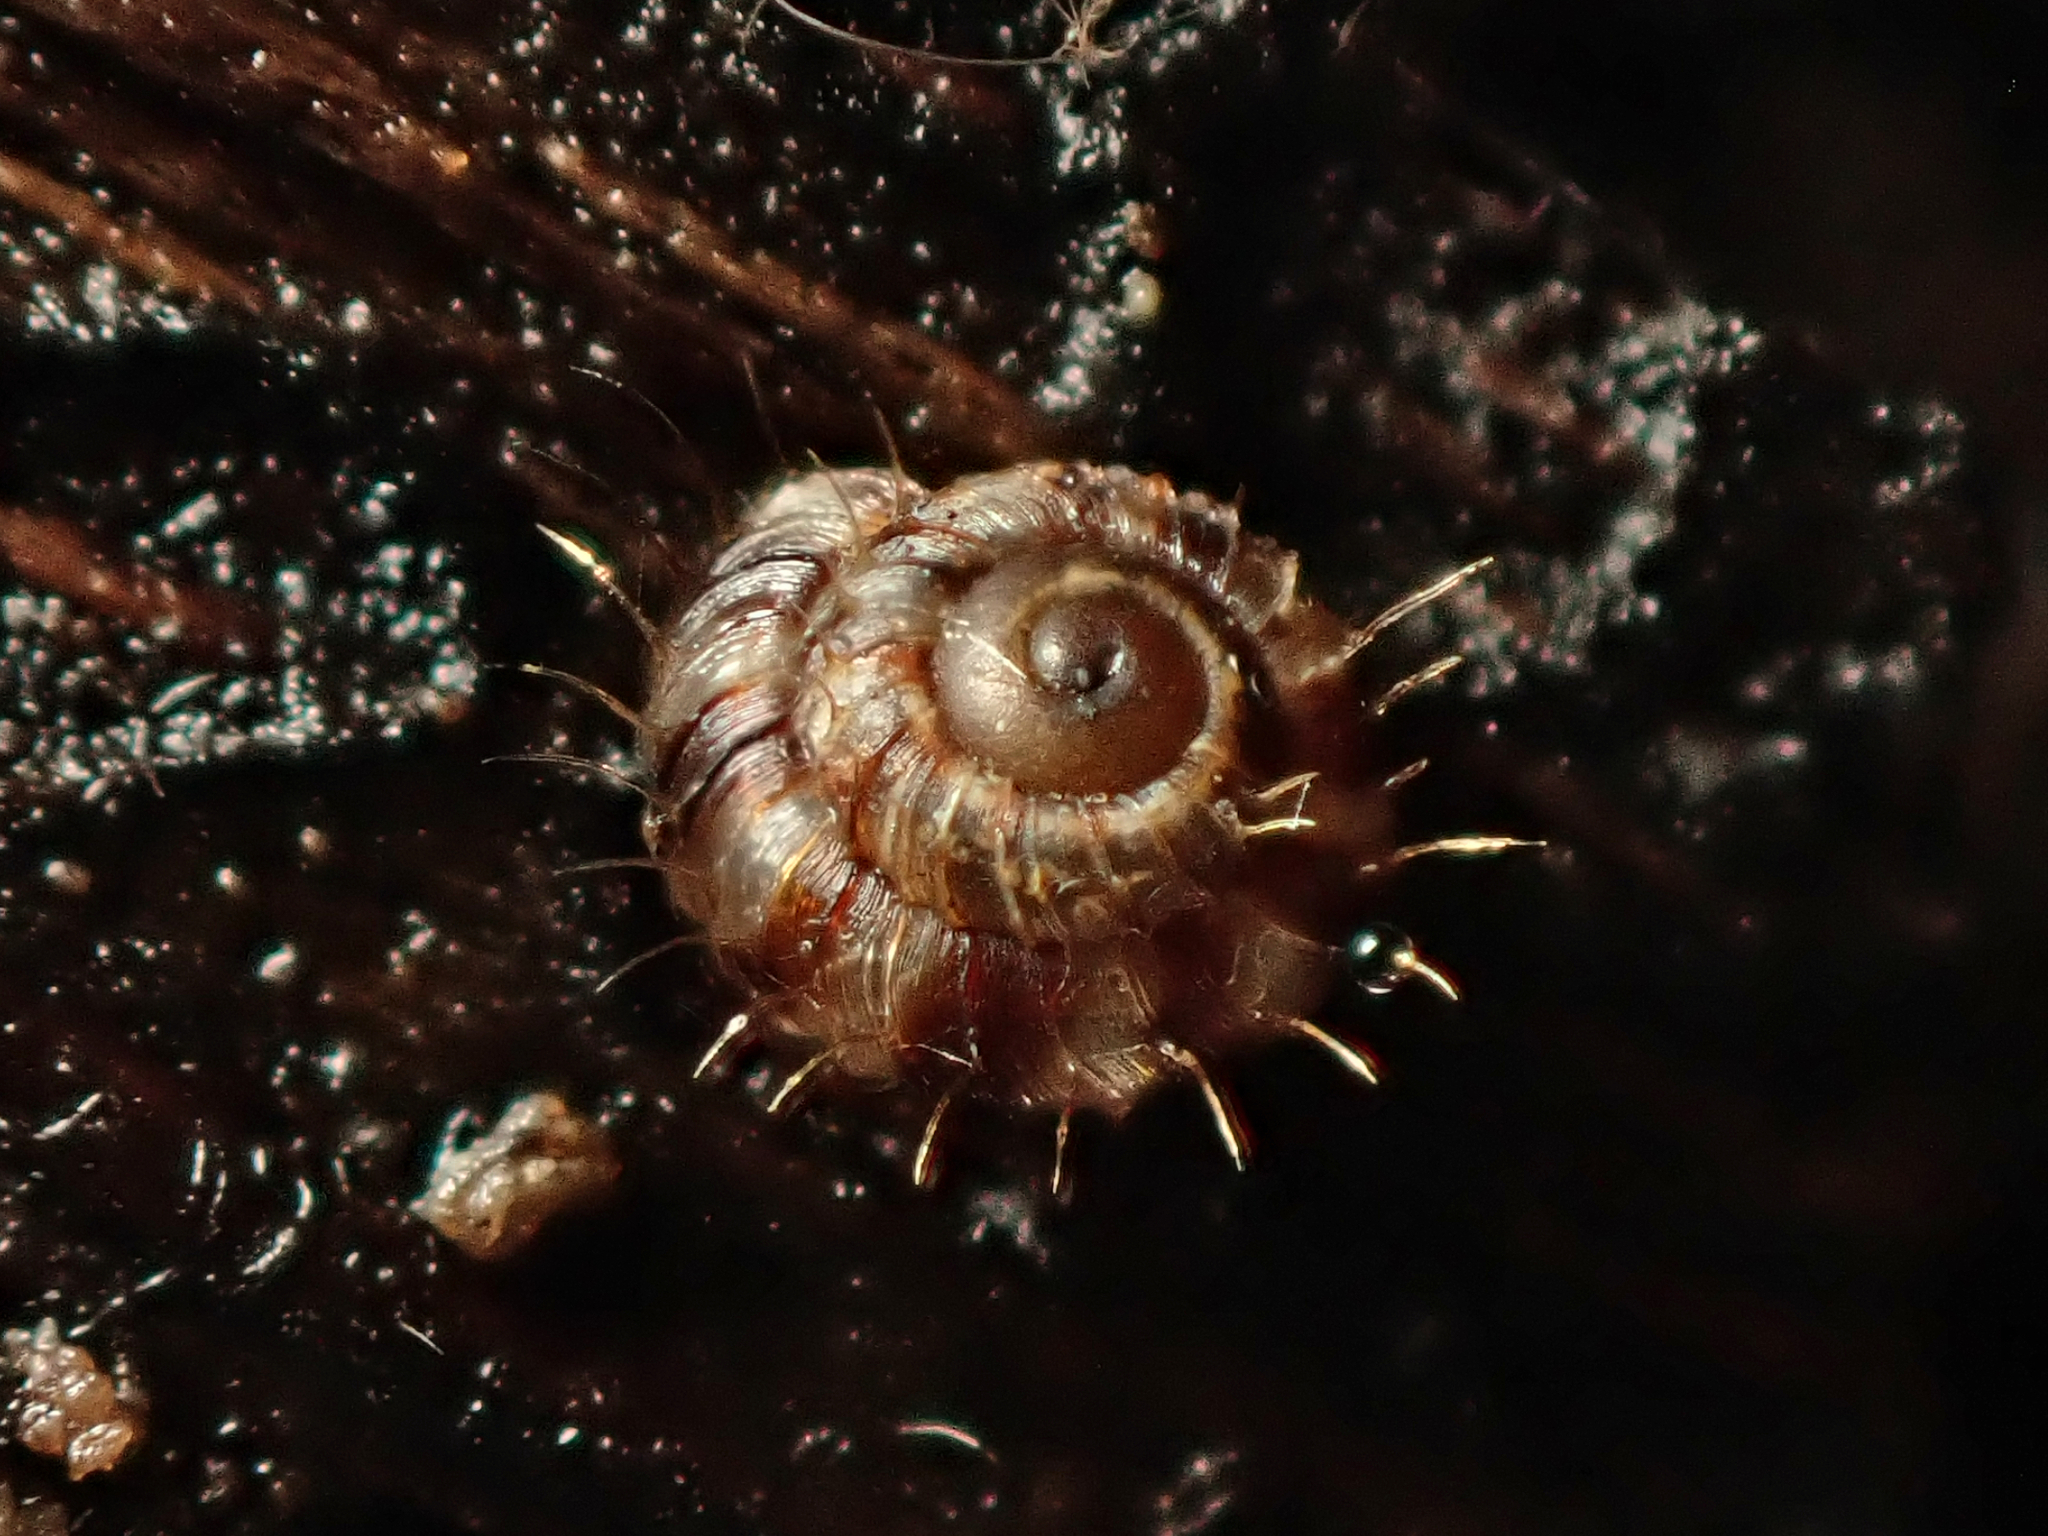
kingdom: Animalia
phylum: Mollusca
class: Gastropoda
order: Stylommatophora
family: Charopidae
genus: Aeschrodomus
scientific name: Aeschrodomus stipulata
